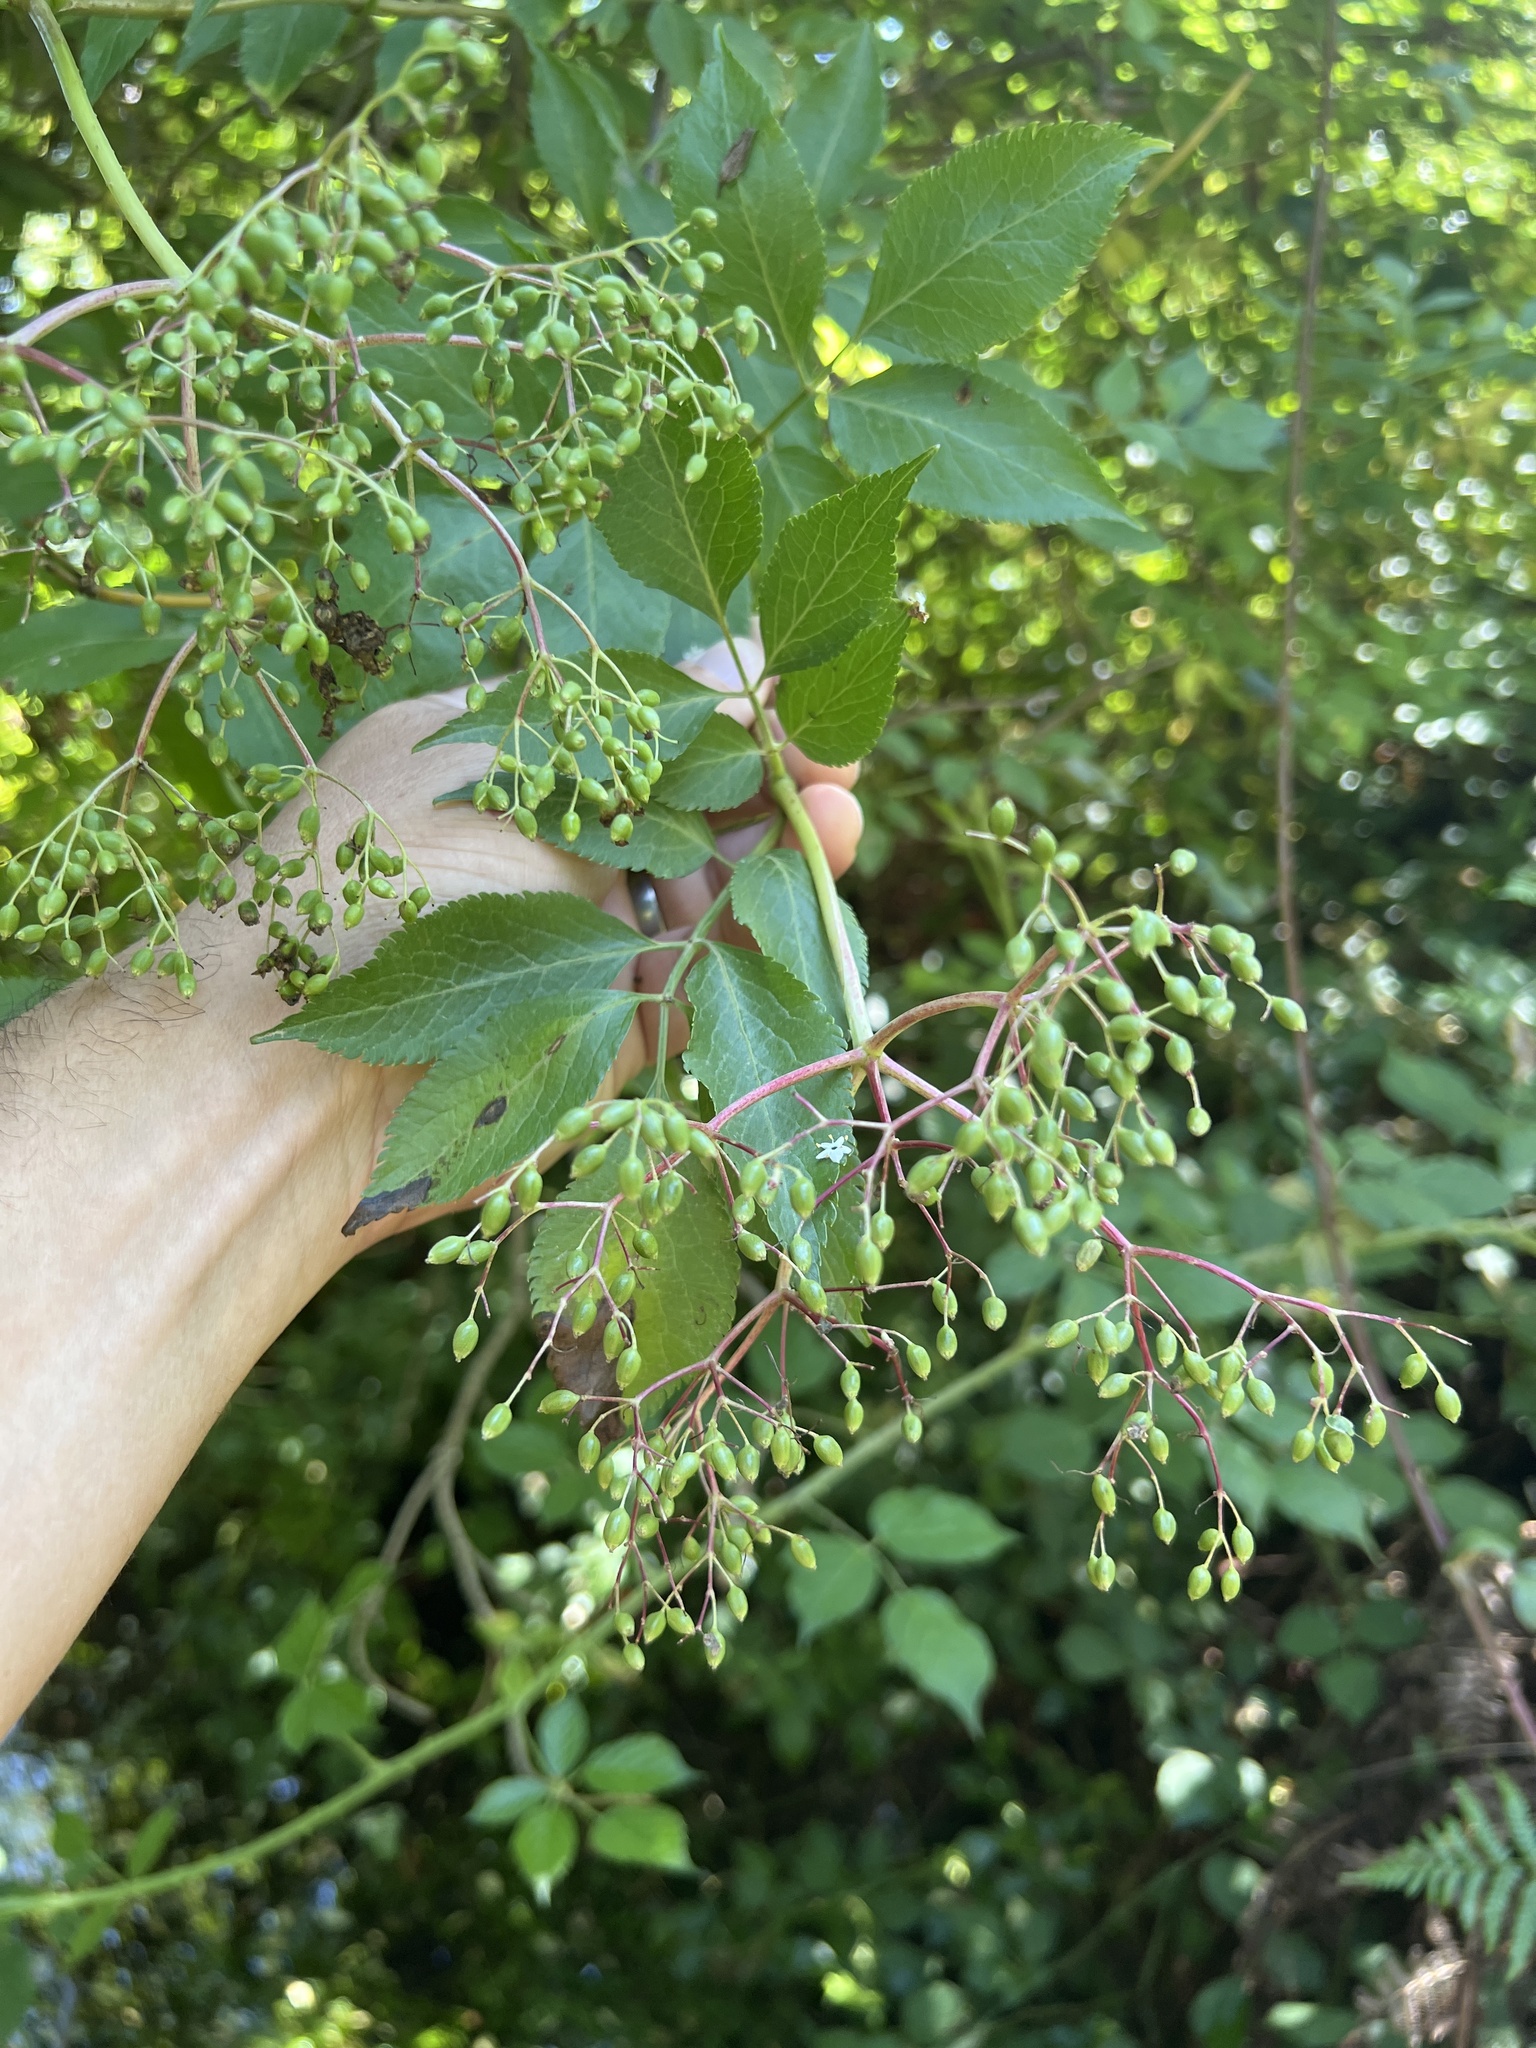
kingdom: Plantae
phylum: Tracheophyta
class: Magnoliopsida
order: Dipsacales
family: Viburnaceae
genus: Sambucus
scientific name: Sambucus nigra
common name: Elder
